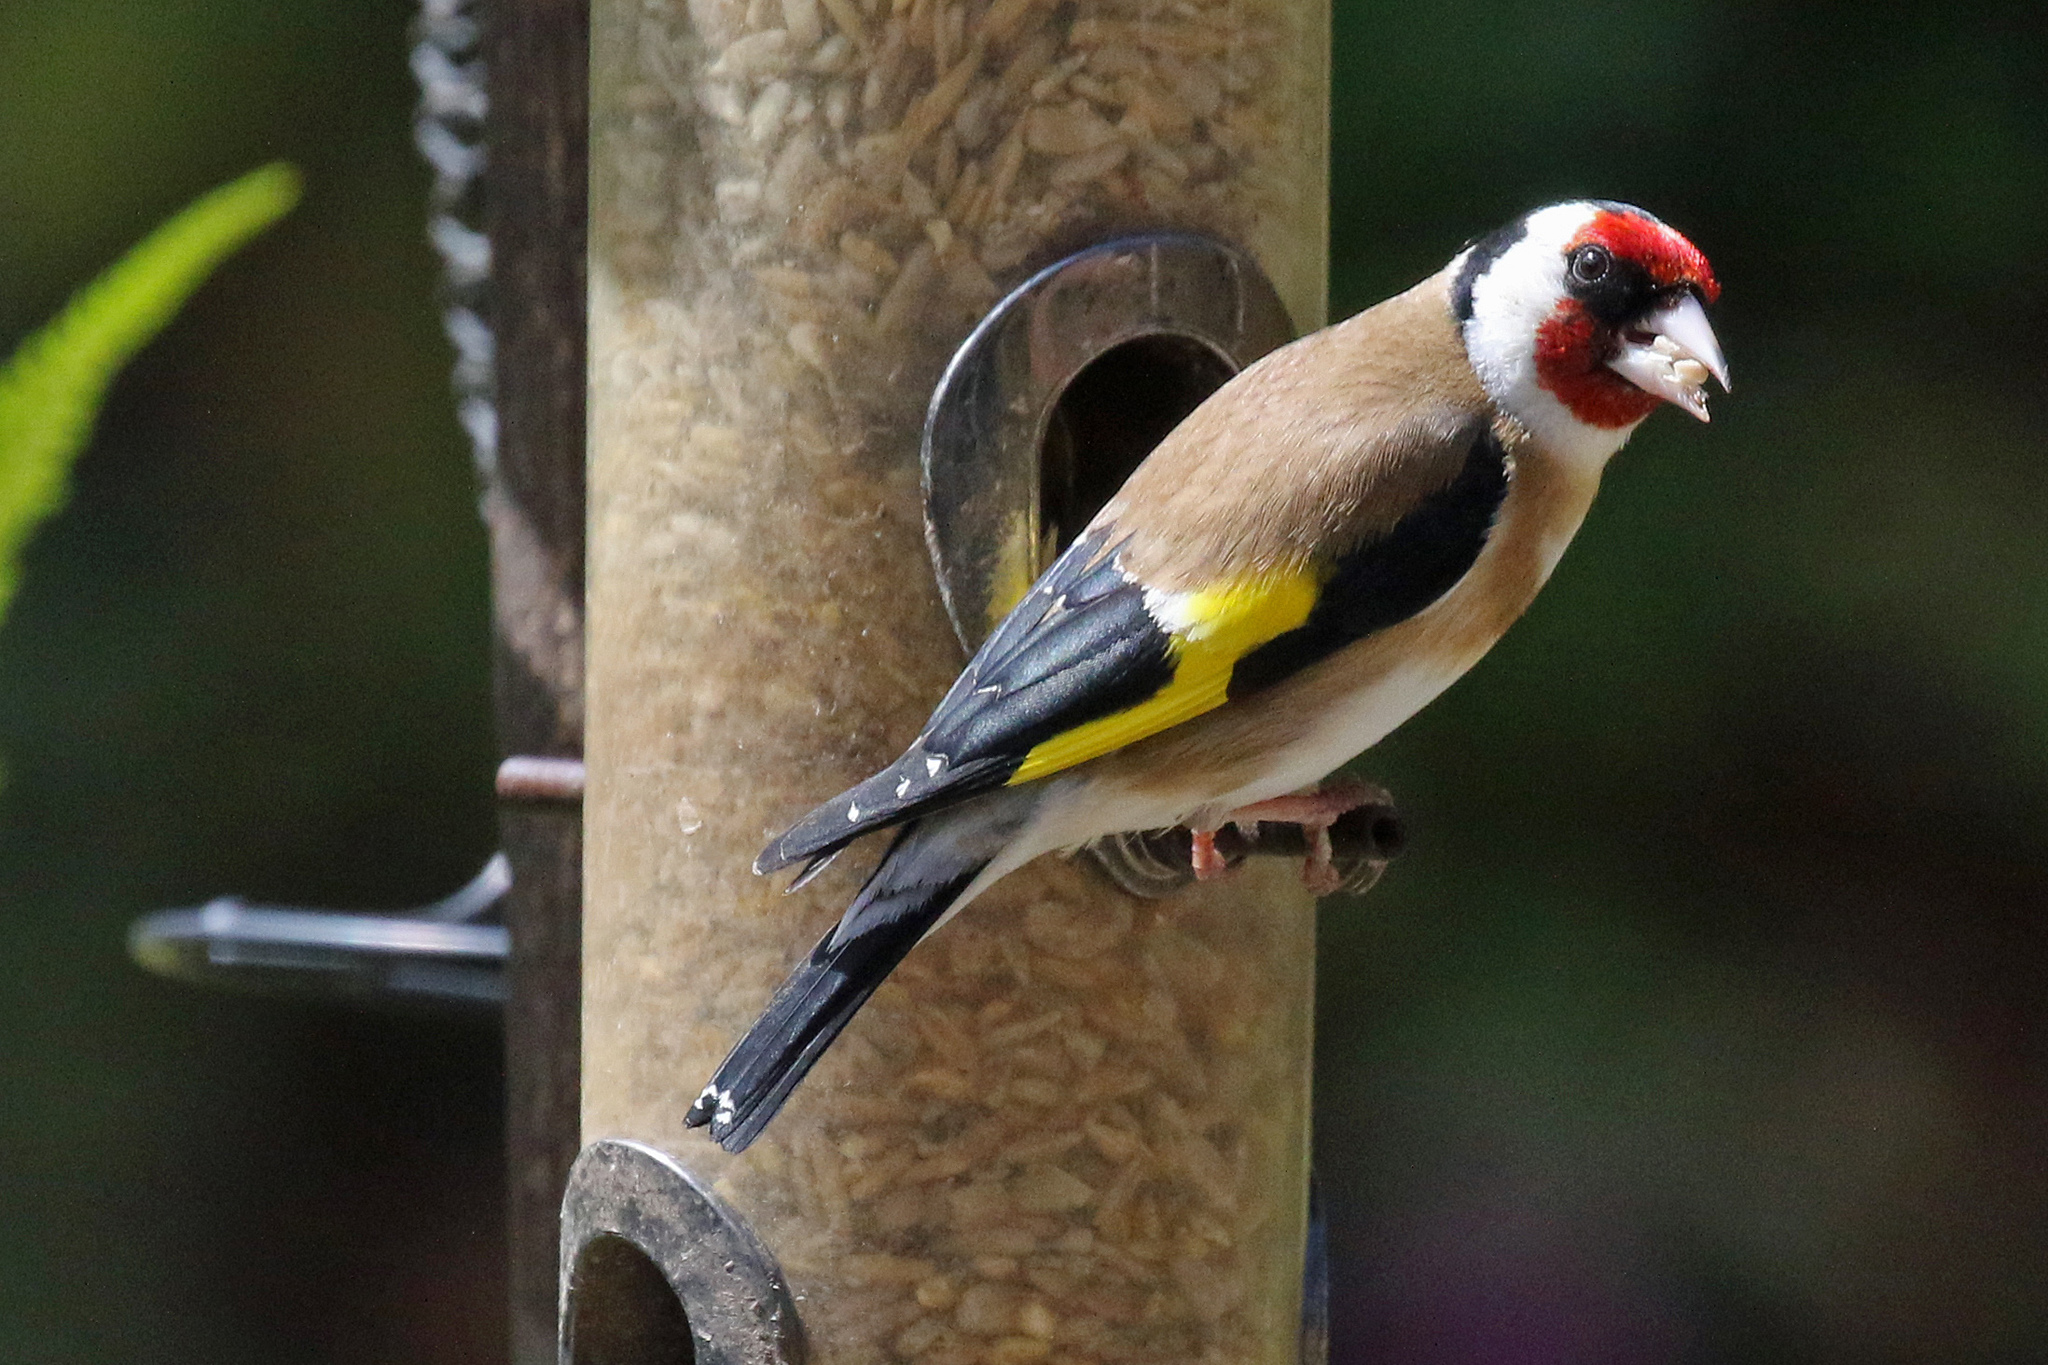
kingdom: Animalia
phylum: Chordata
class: Aves
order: Passeriformes
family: Fringillidae
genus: Carduelis
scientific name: Carduelis carduelis
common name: European goldfinch
